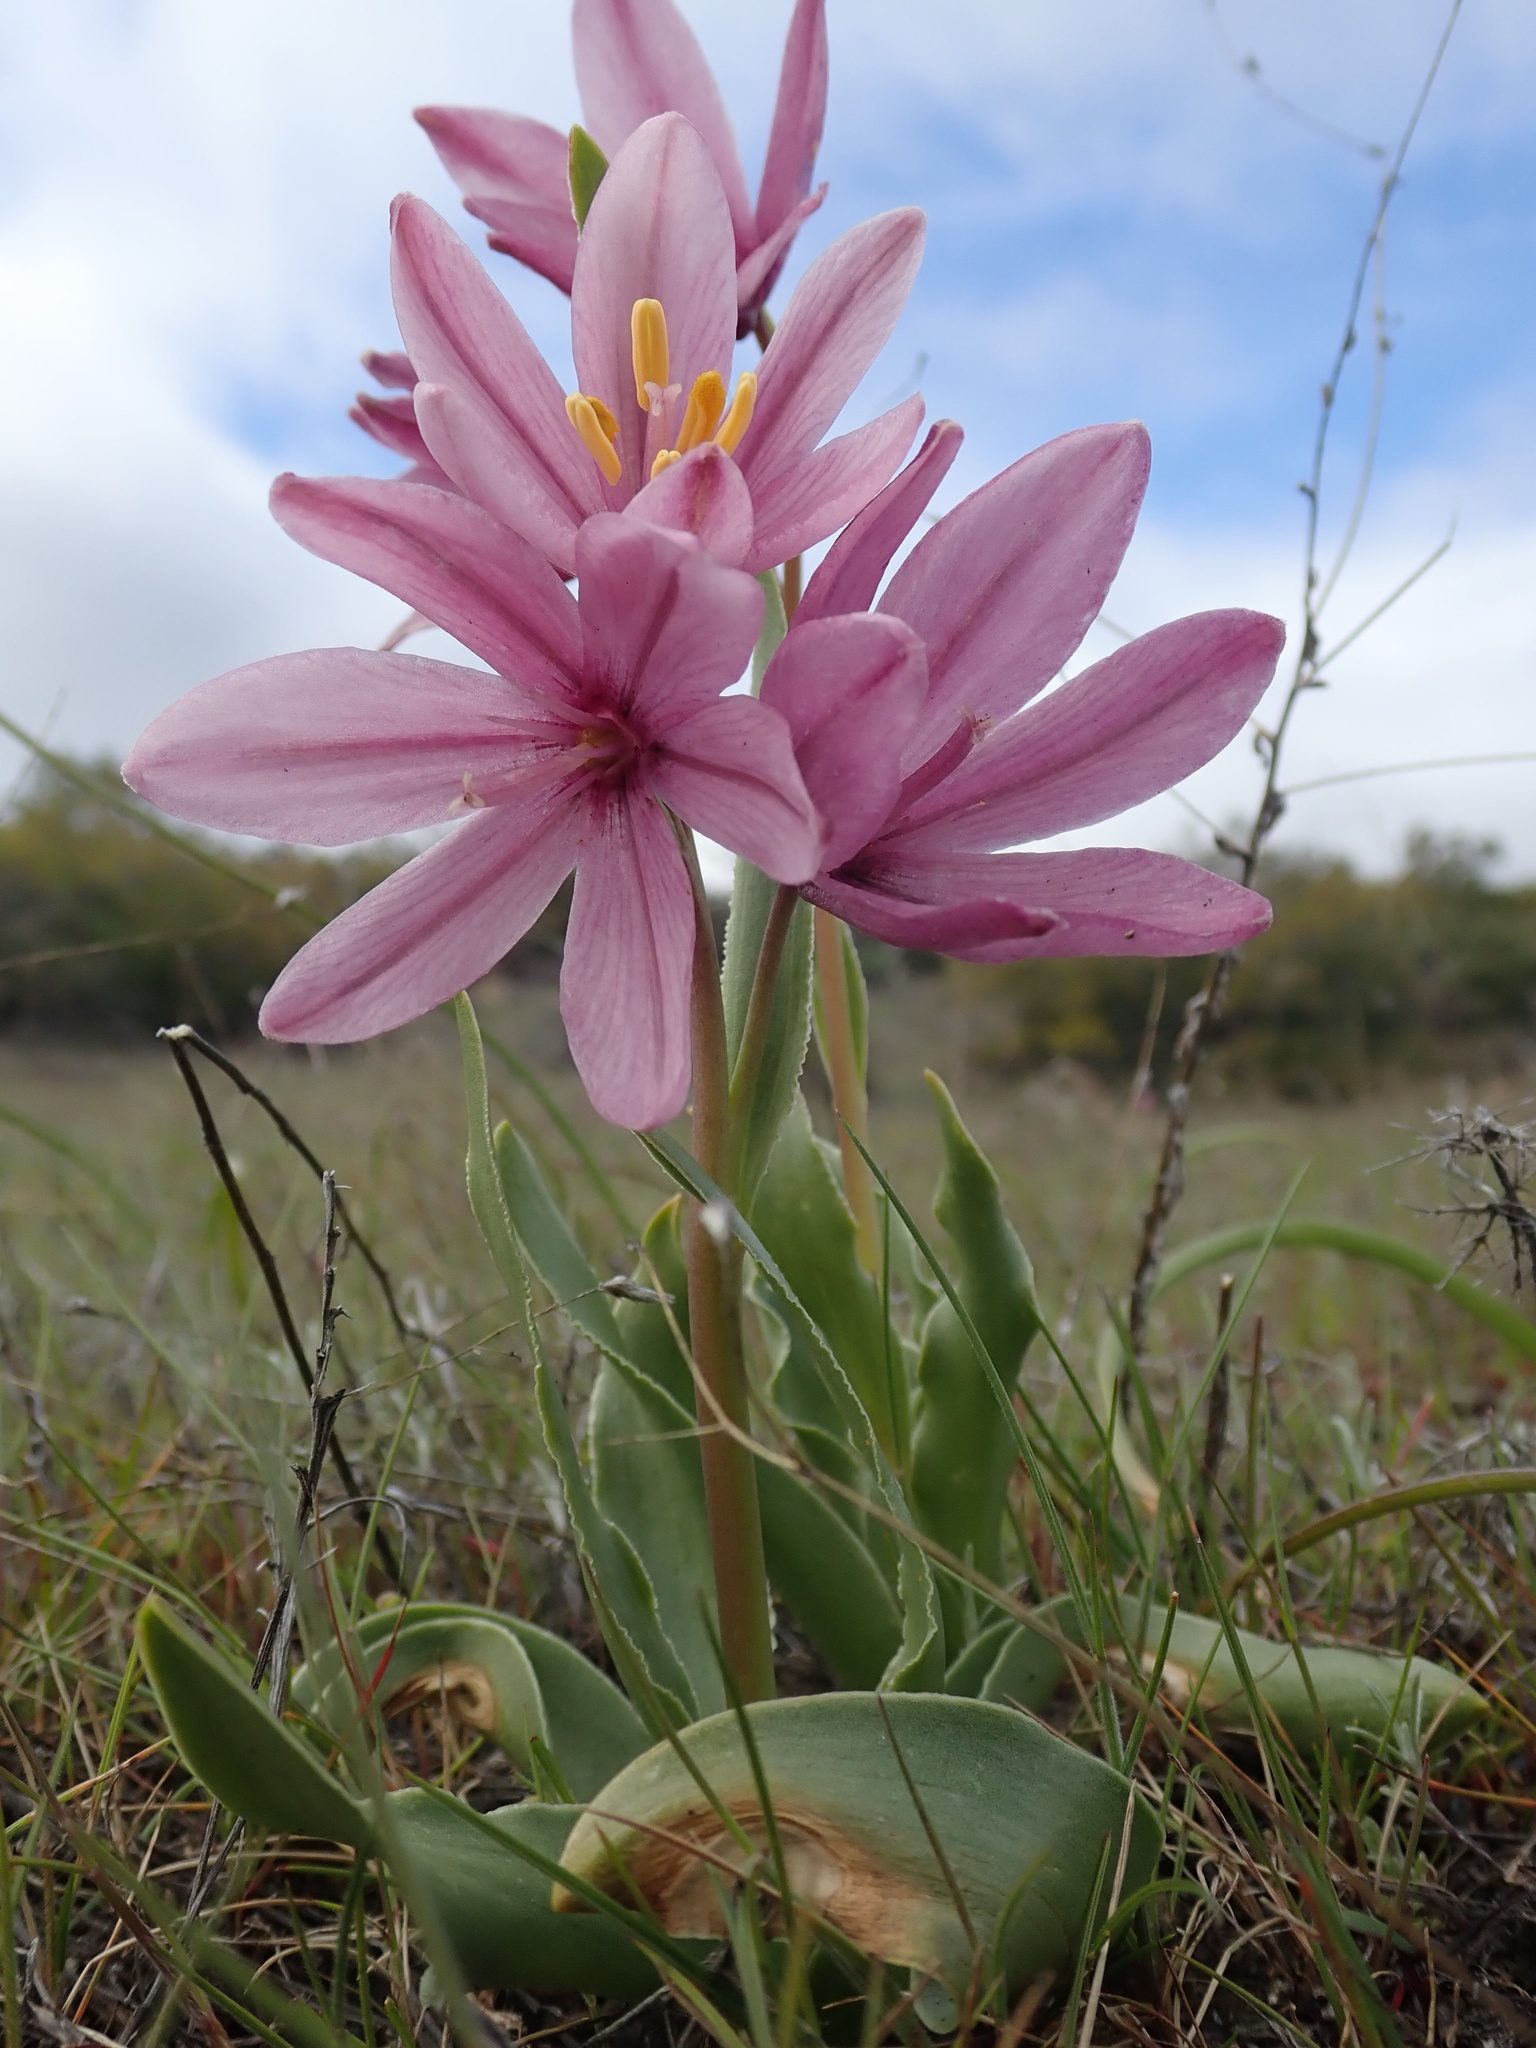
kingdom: Plantae
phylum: Tracheophyta
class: Liliopsida
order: Liliales
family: Liliaceae
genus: Fritillaria
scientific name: Fritillaria pluriflora
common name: Adobe-lily
